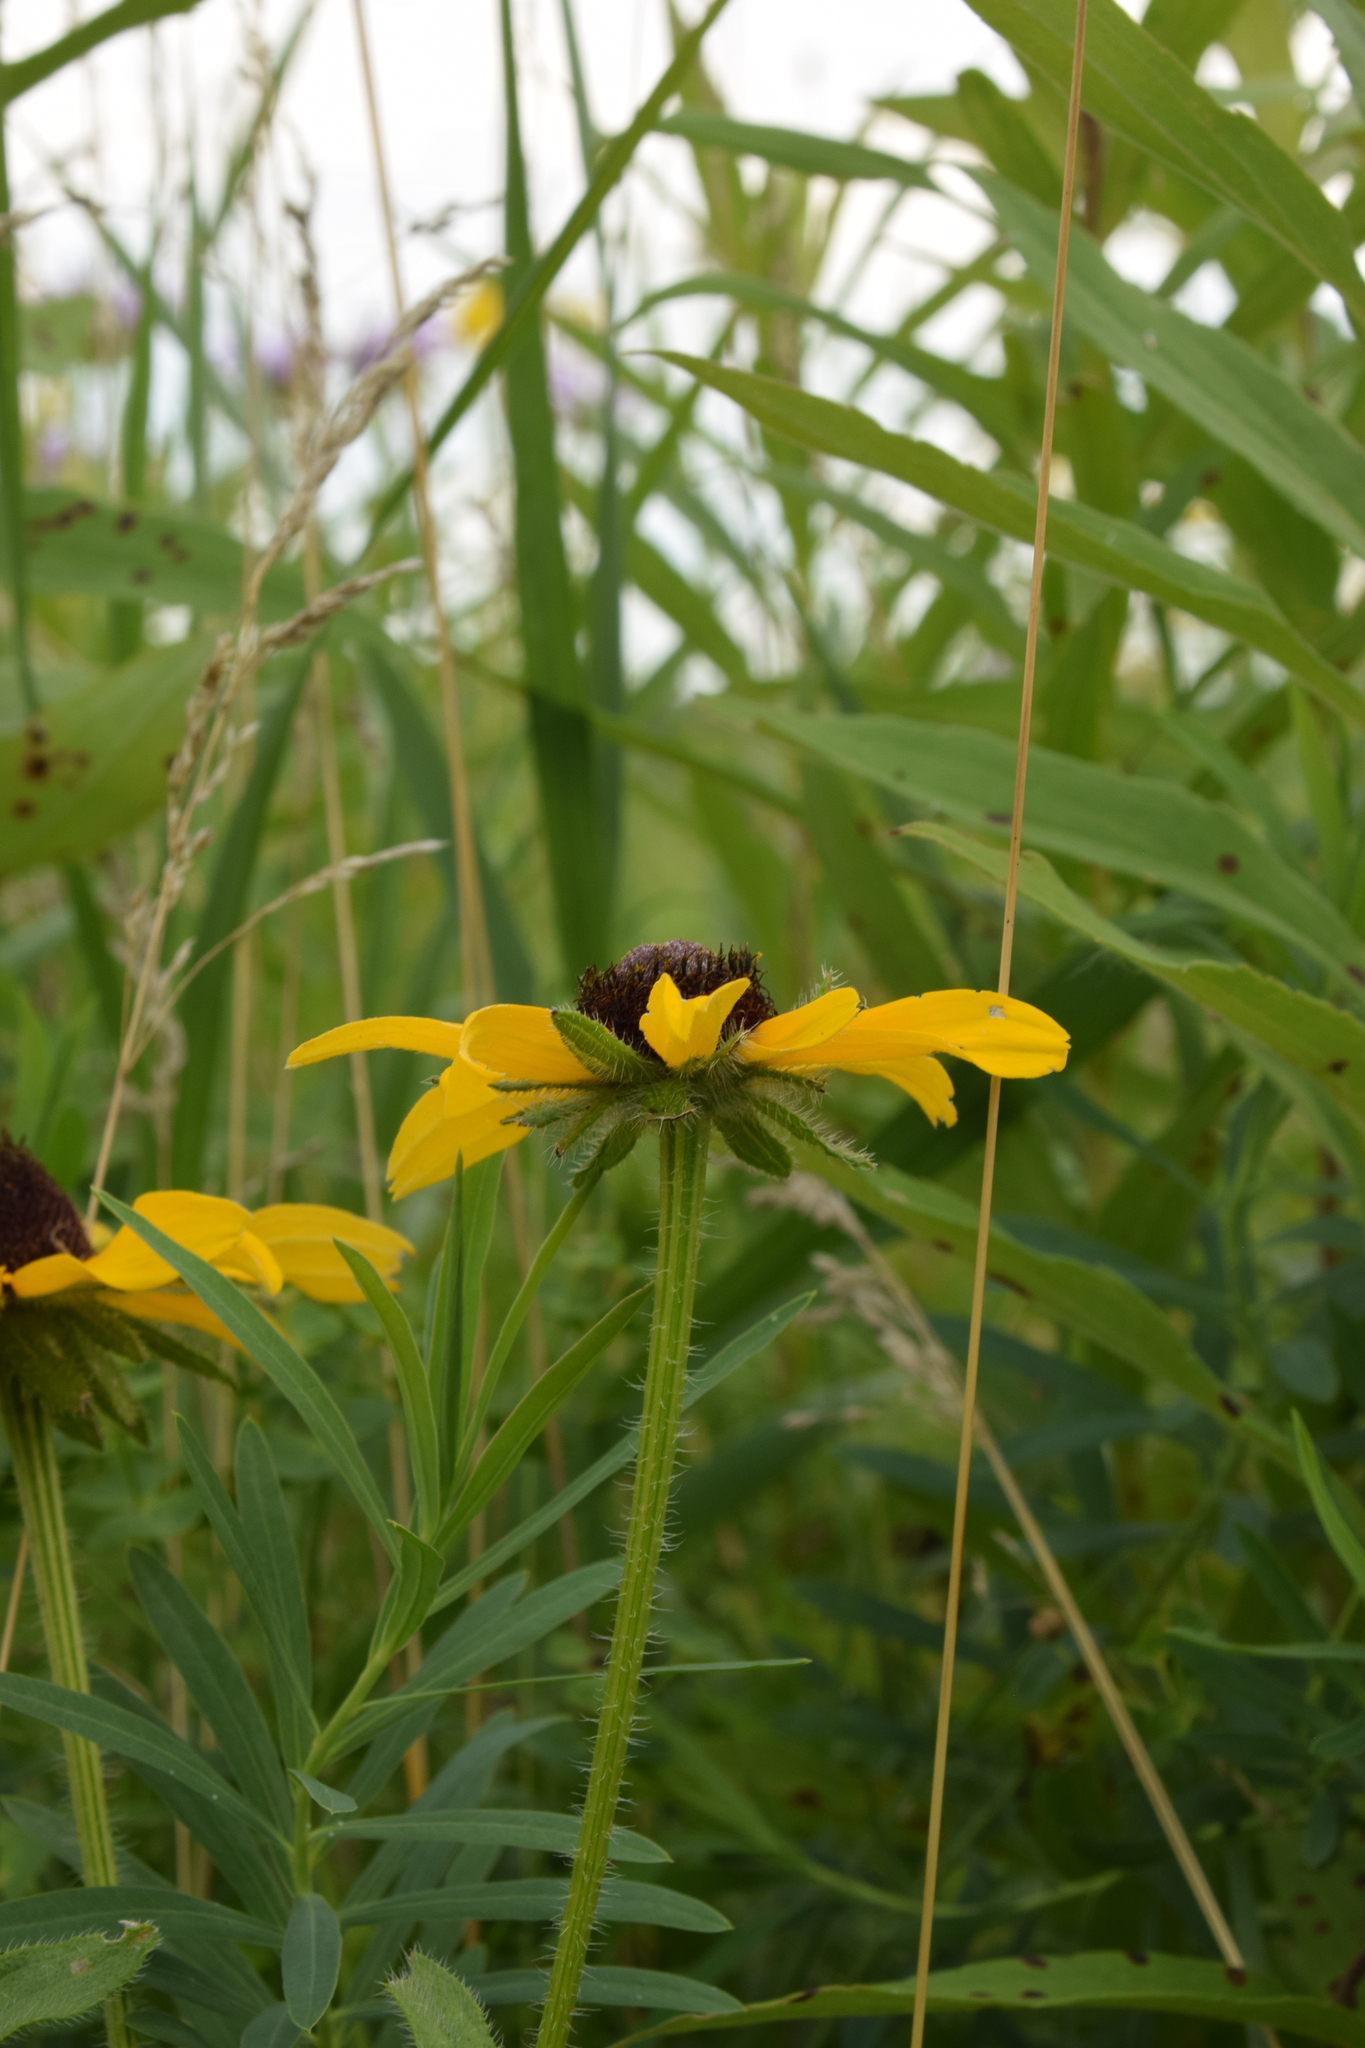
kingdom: Plantae
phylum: Tracheophyta
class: Magnoliopsida
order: Asterales
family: Asteraceae
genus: Rudbeckia
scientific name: Rudbeckia hirta
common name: Black-eyed-susan
